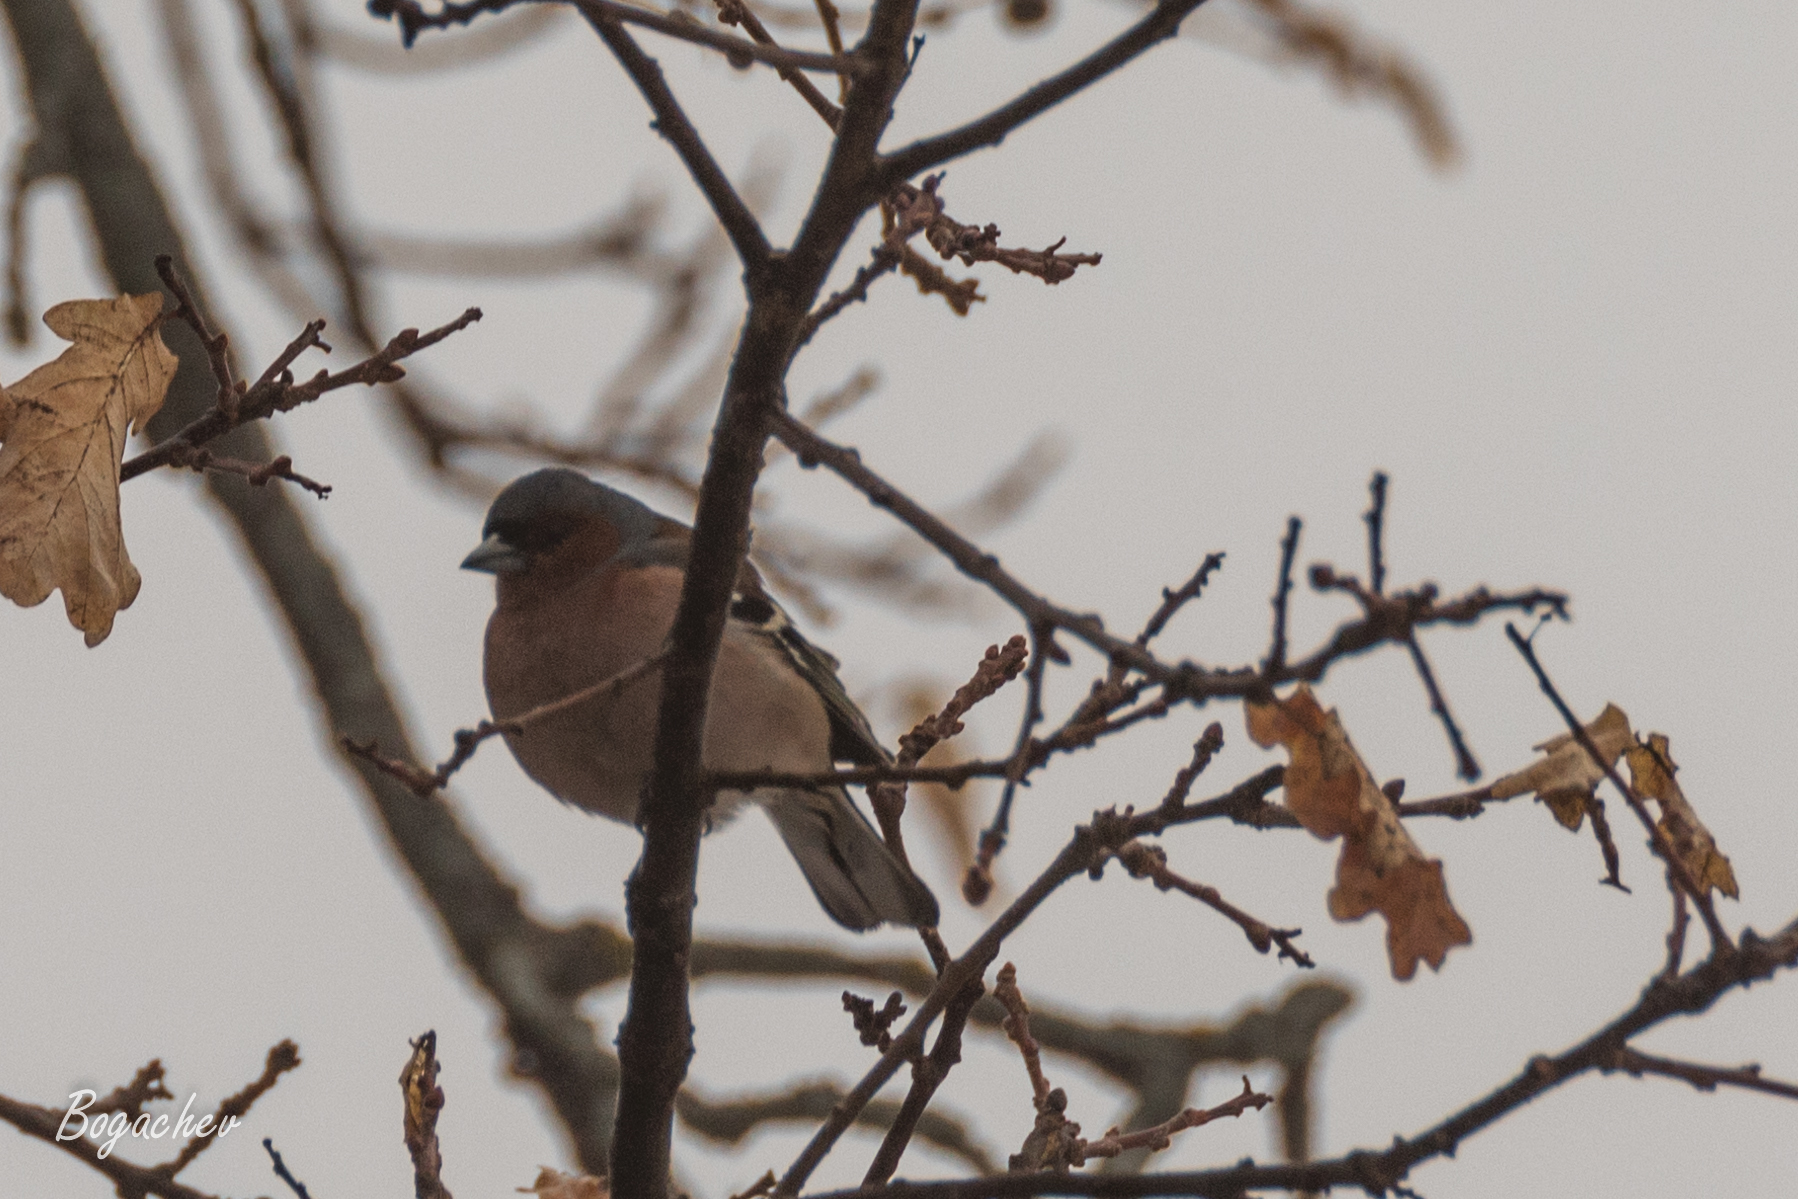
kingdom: Animalia
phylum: Chordata
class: Aves
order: Passeriformes
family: Fringillidae
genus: Fringilla
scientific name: Fringilla coelebs
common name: Common chaffinch
